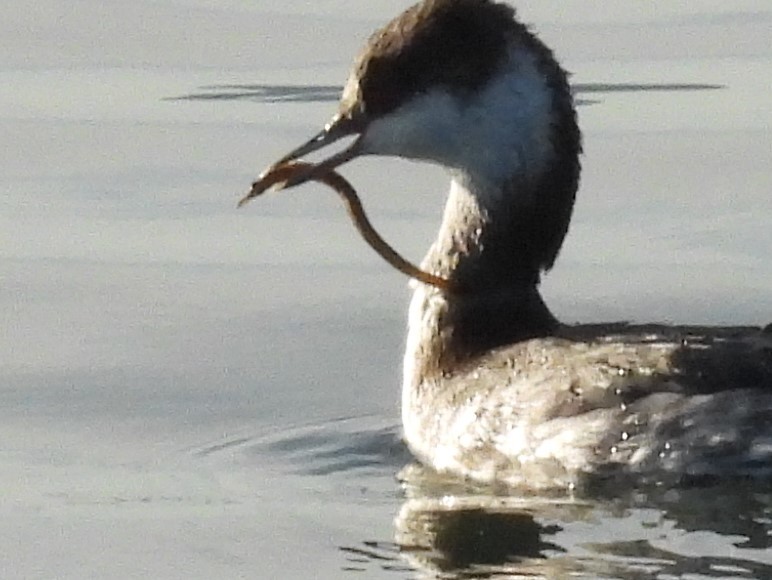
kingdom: Animalia
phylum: Chordata
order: Syngnathiformes
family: Syngnathidae
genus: Syngnathus
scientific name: Syngnathus californiensis
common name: Great pipefish
